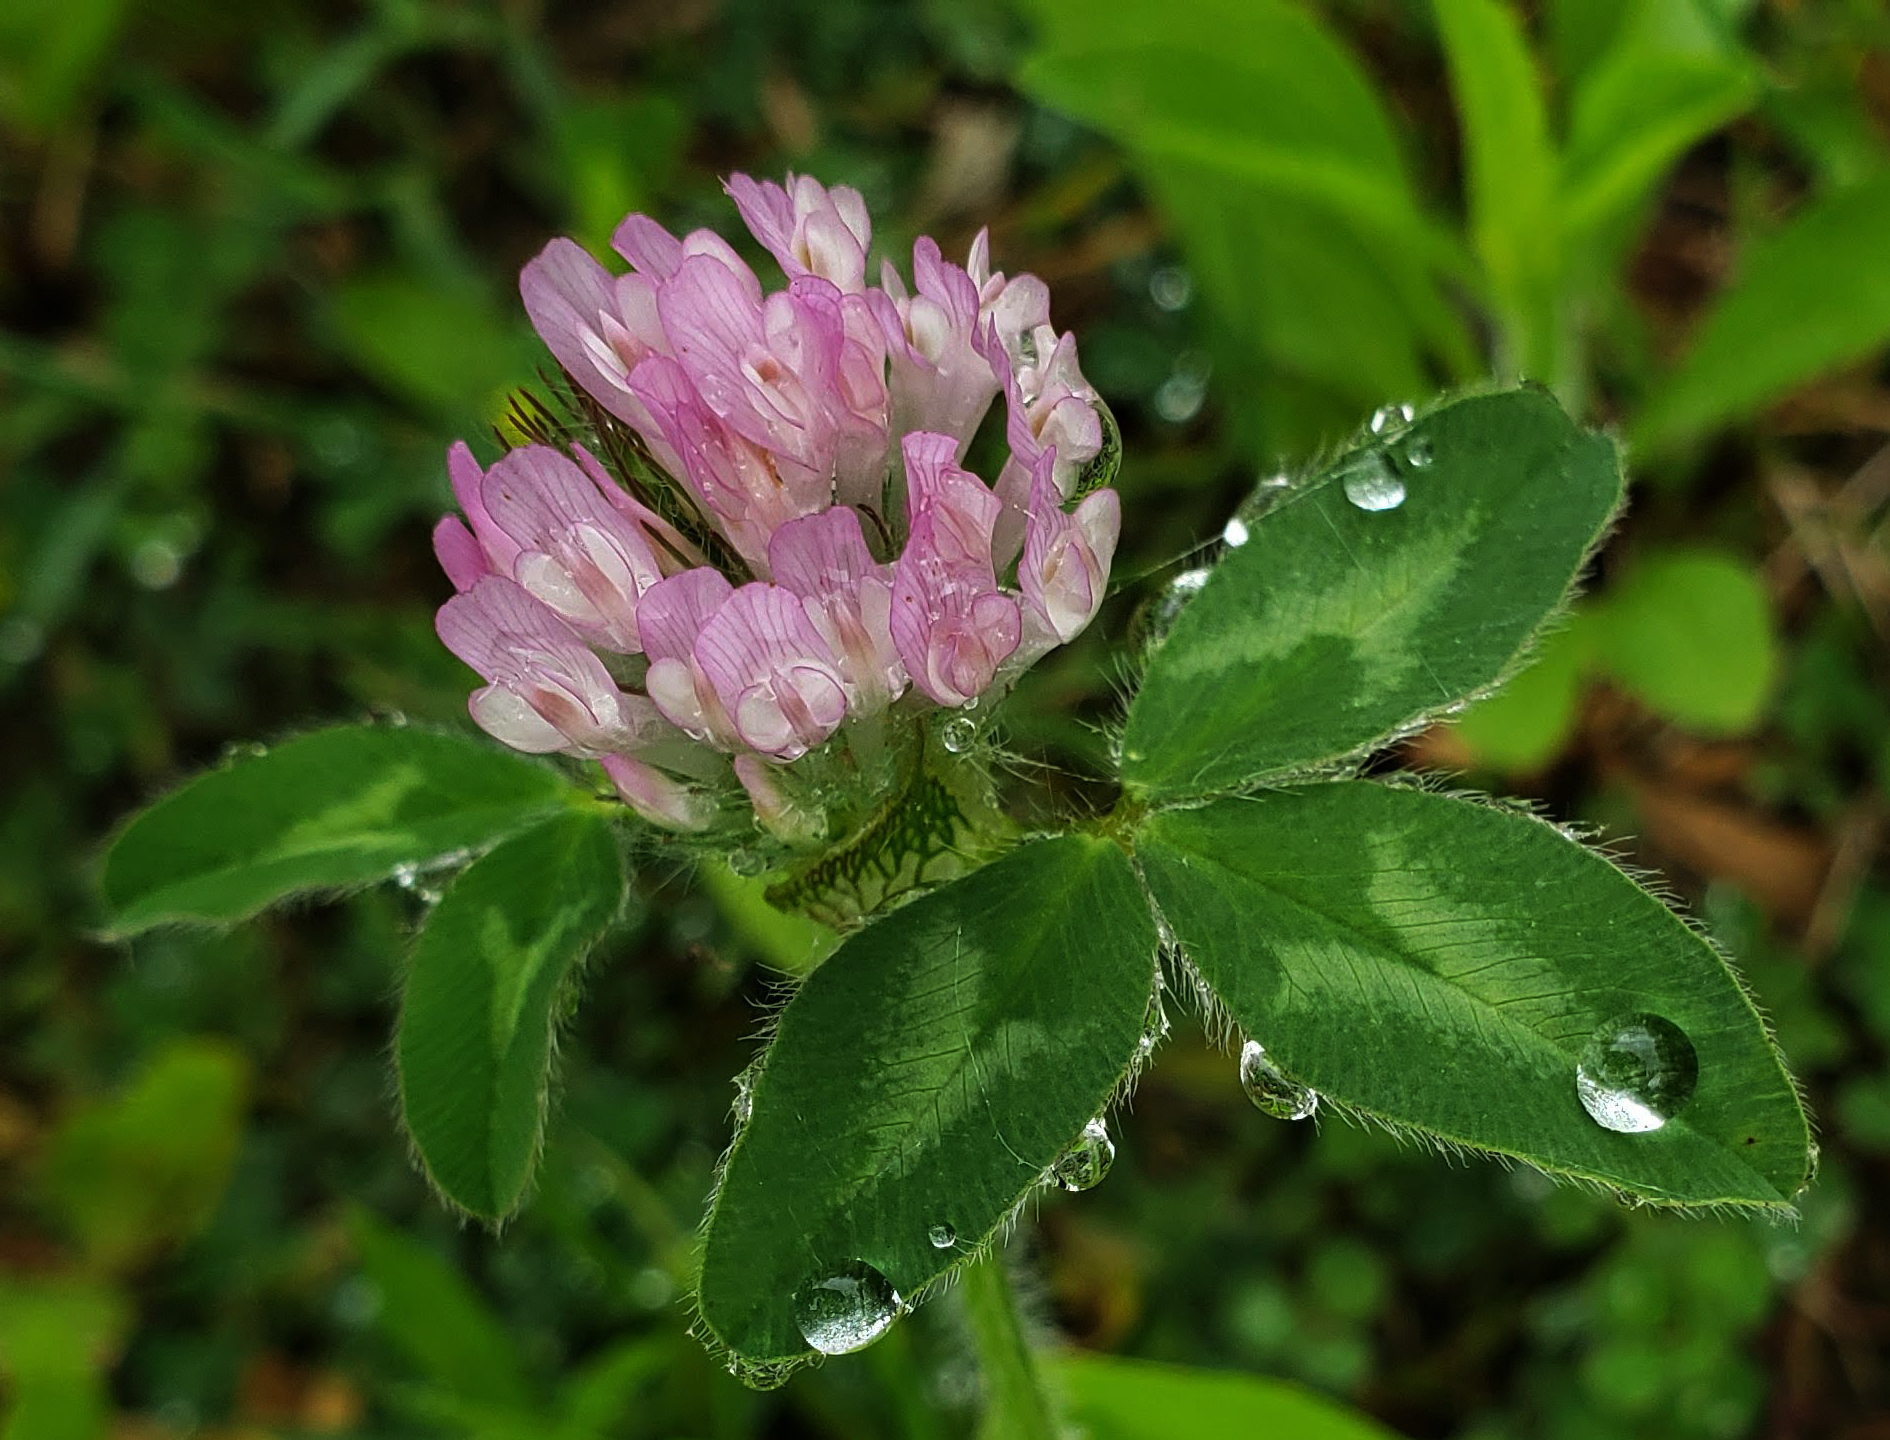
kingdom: Plantae
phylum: Tracheophyta
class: Magnoliopsida
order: Fabales
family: Fabaceae
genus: Trifolium
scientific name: Trifolium pratense
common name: Red clover
